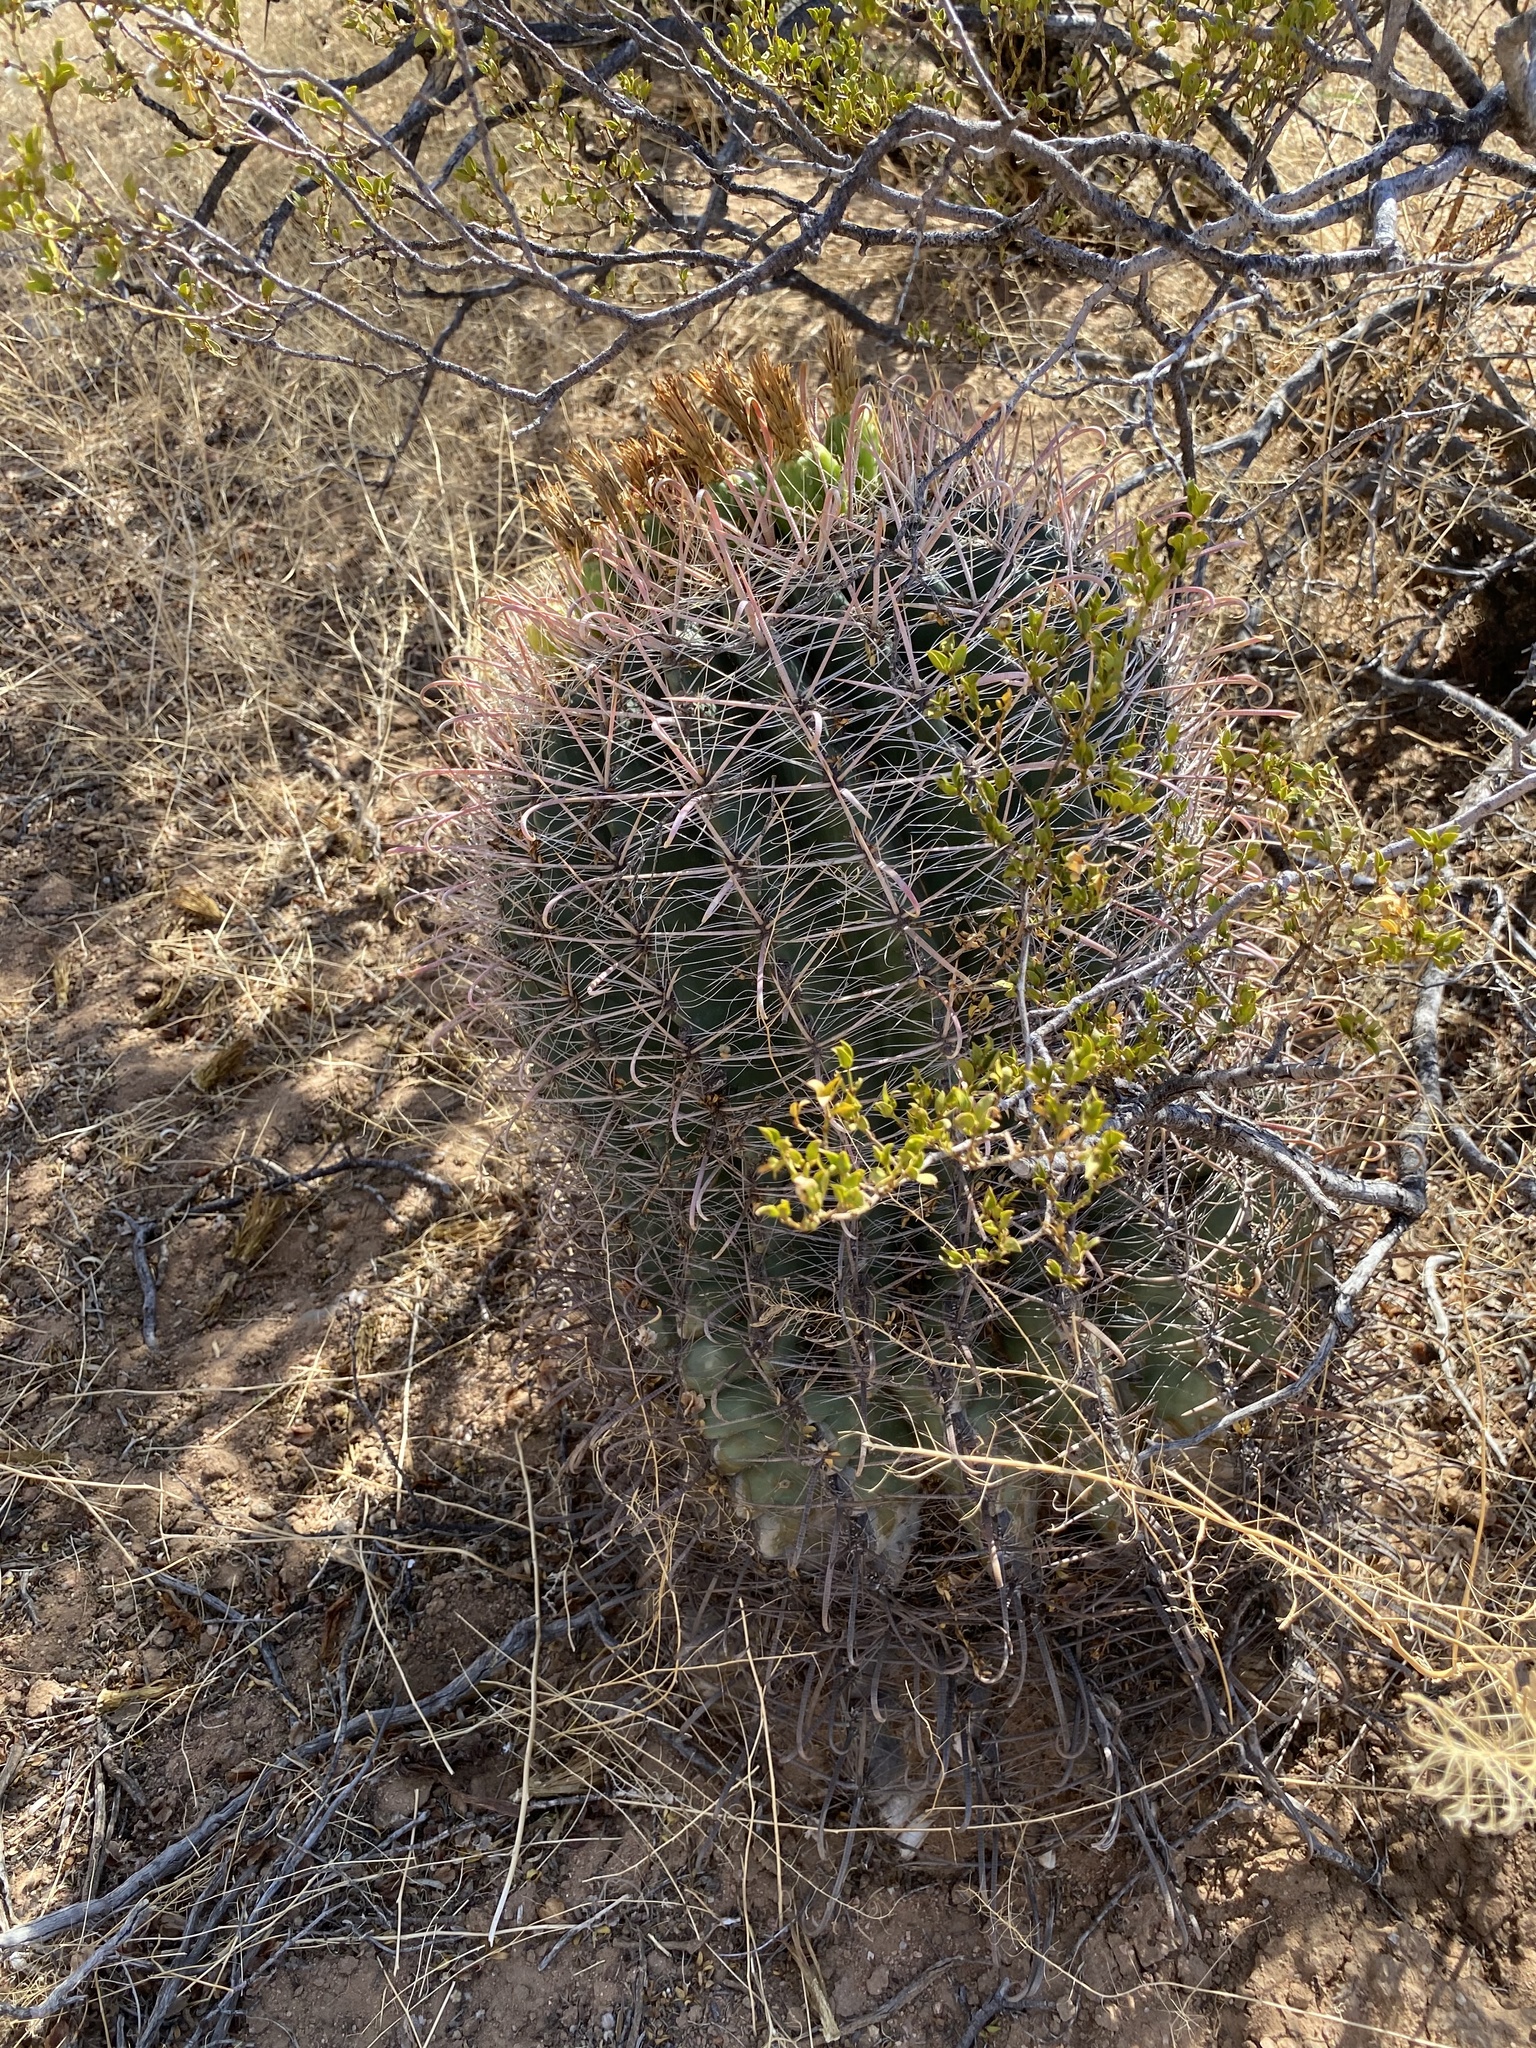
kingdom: Plantae
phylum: Tracheophyta
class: Magnoliopsida
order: Caryophyllales
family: Cactaceae
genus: Ferocactus
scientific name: Ferocactus wislizeni
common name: Candy barrel cactus
